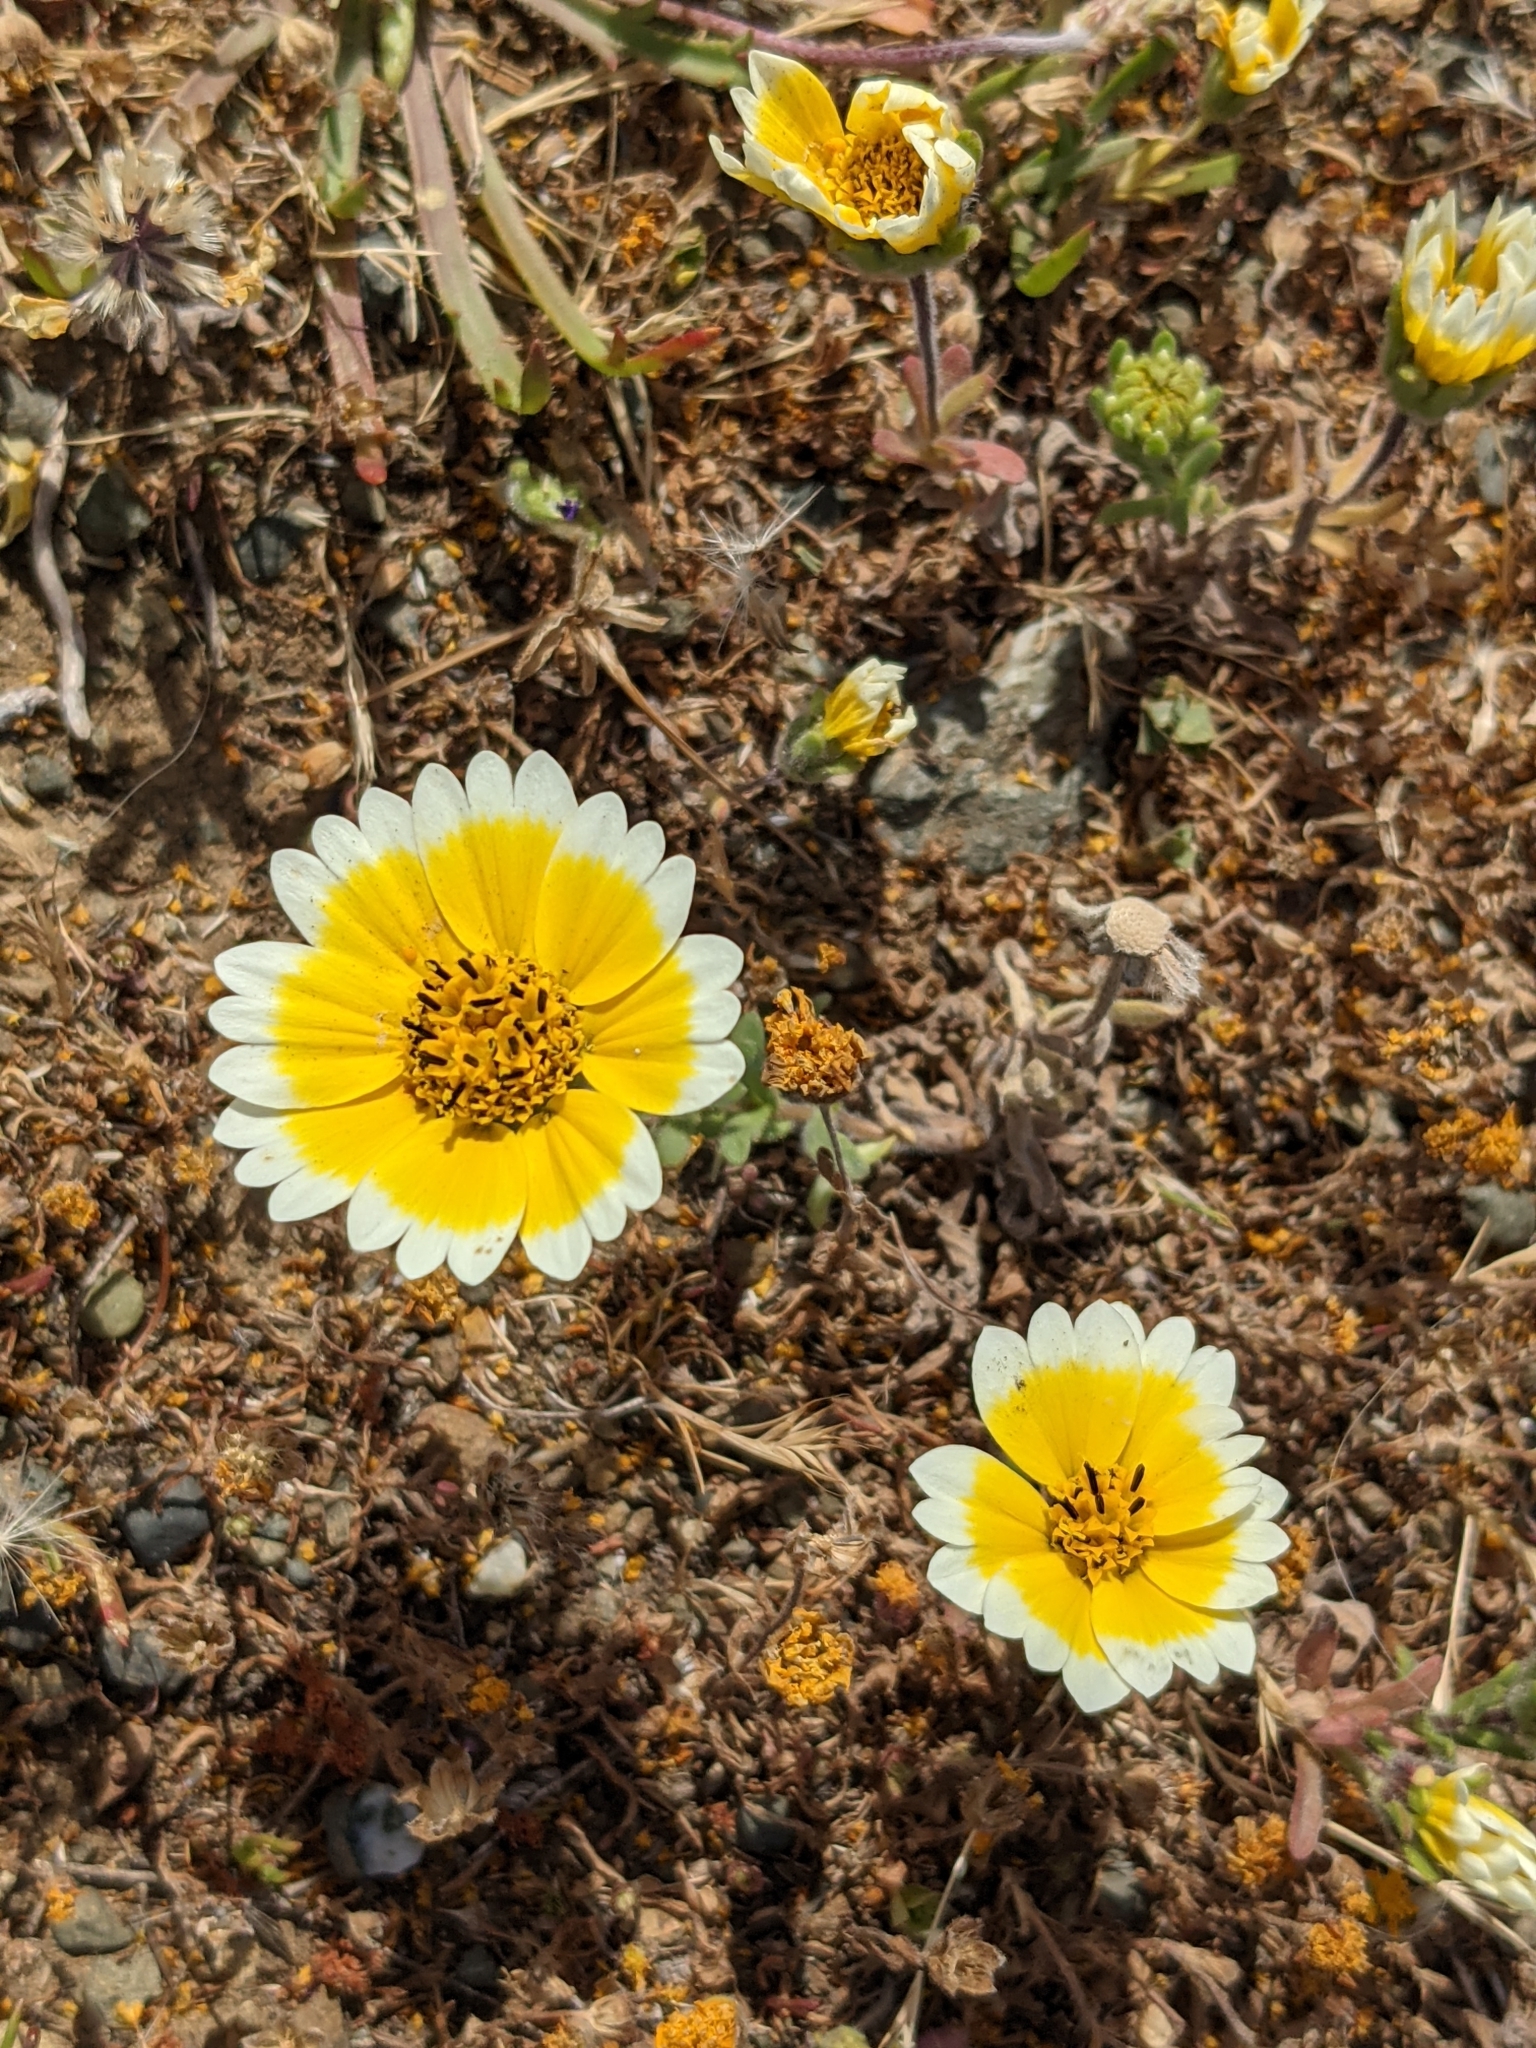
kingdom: Plantae
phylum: Tracheophyta
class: Magnoliopsida
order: Asterales
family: Asteraceae
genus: Layia
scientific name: Layia platyglossa
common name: Tidy-tips
